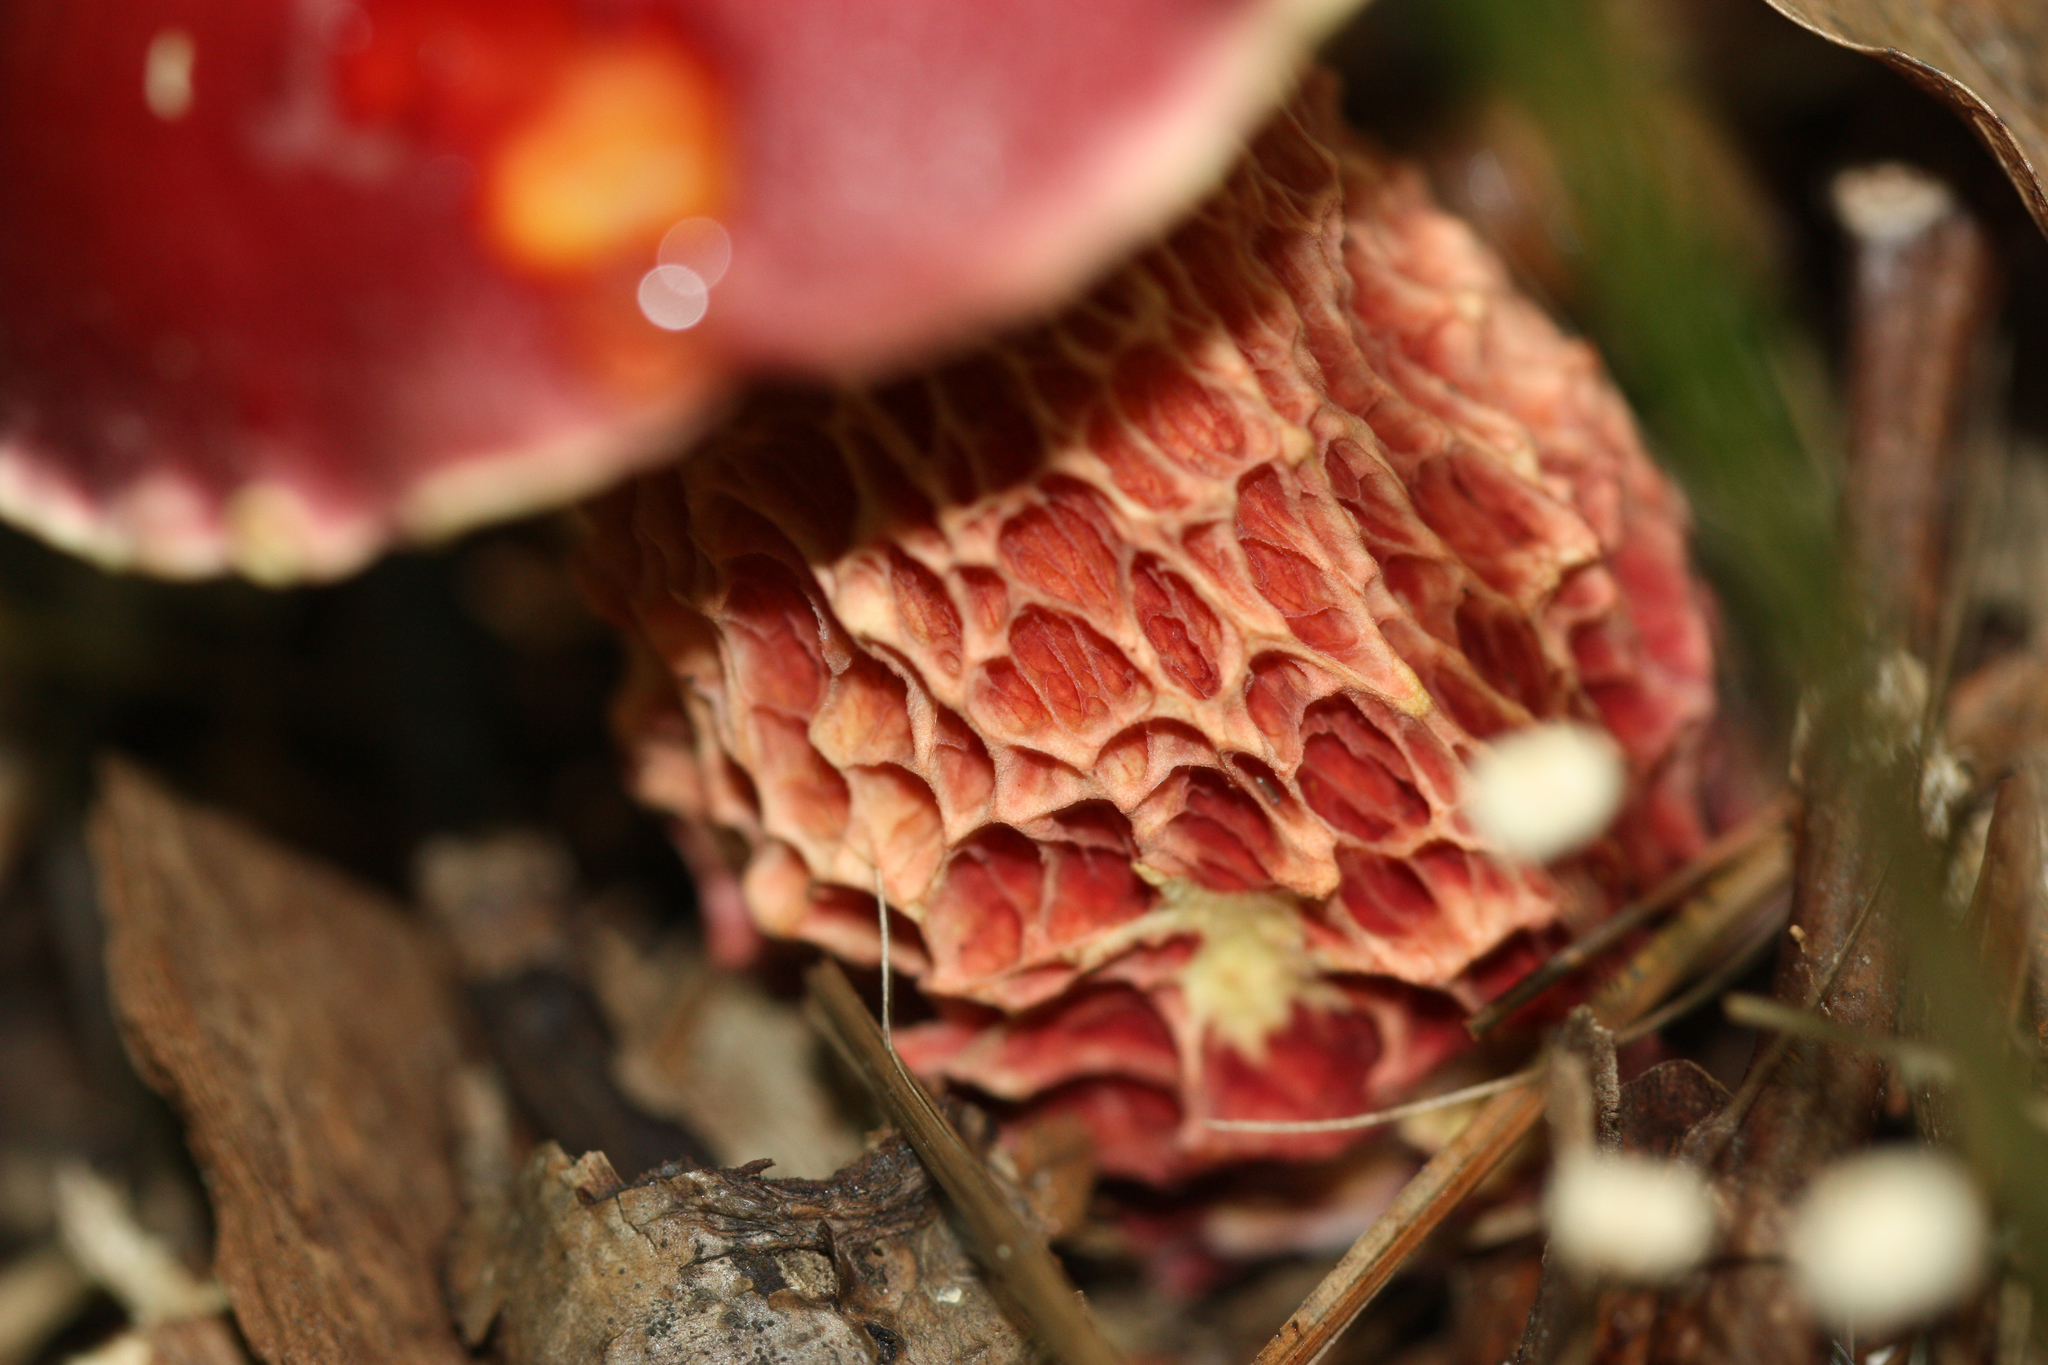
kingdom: Fungi
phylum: Basidiomycota
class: Agaricomycetes
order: Boletales
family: Boletaceae
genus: Butyriboletus
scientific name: Butyriboletus frostii
